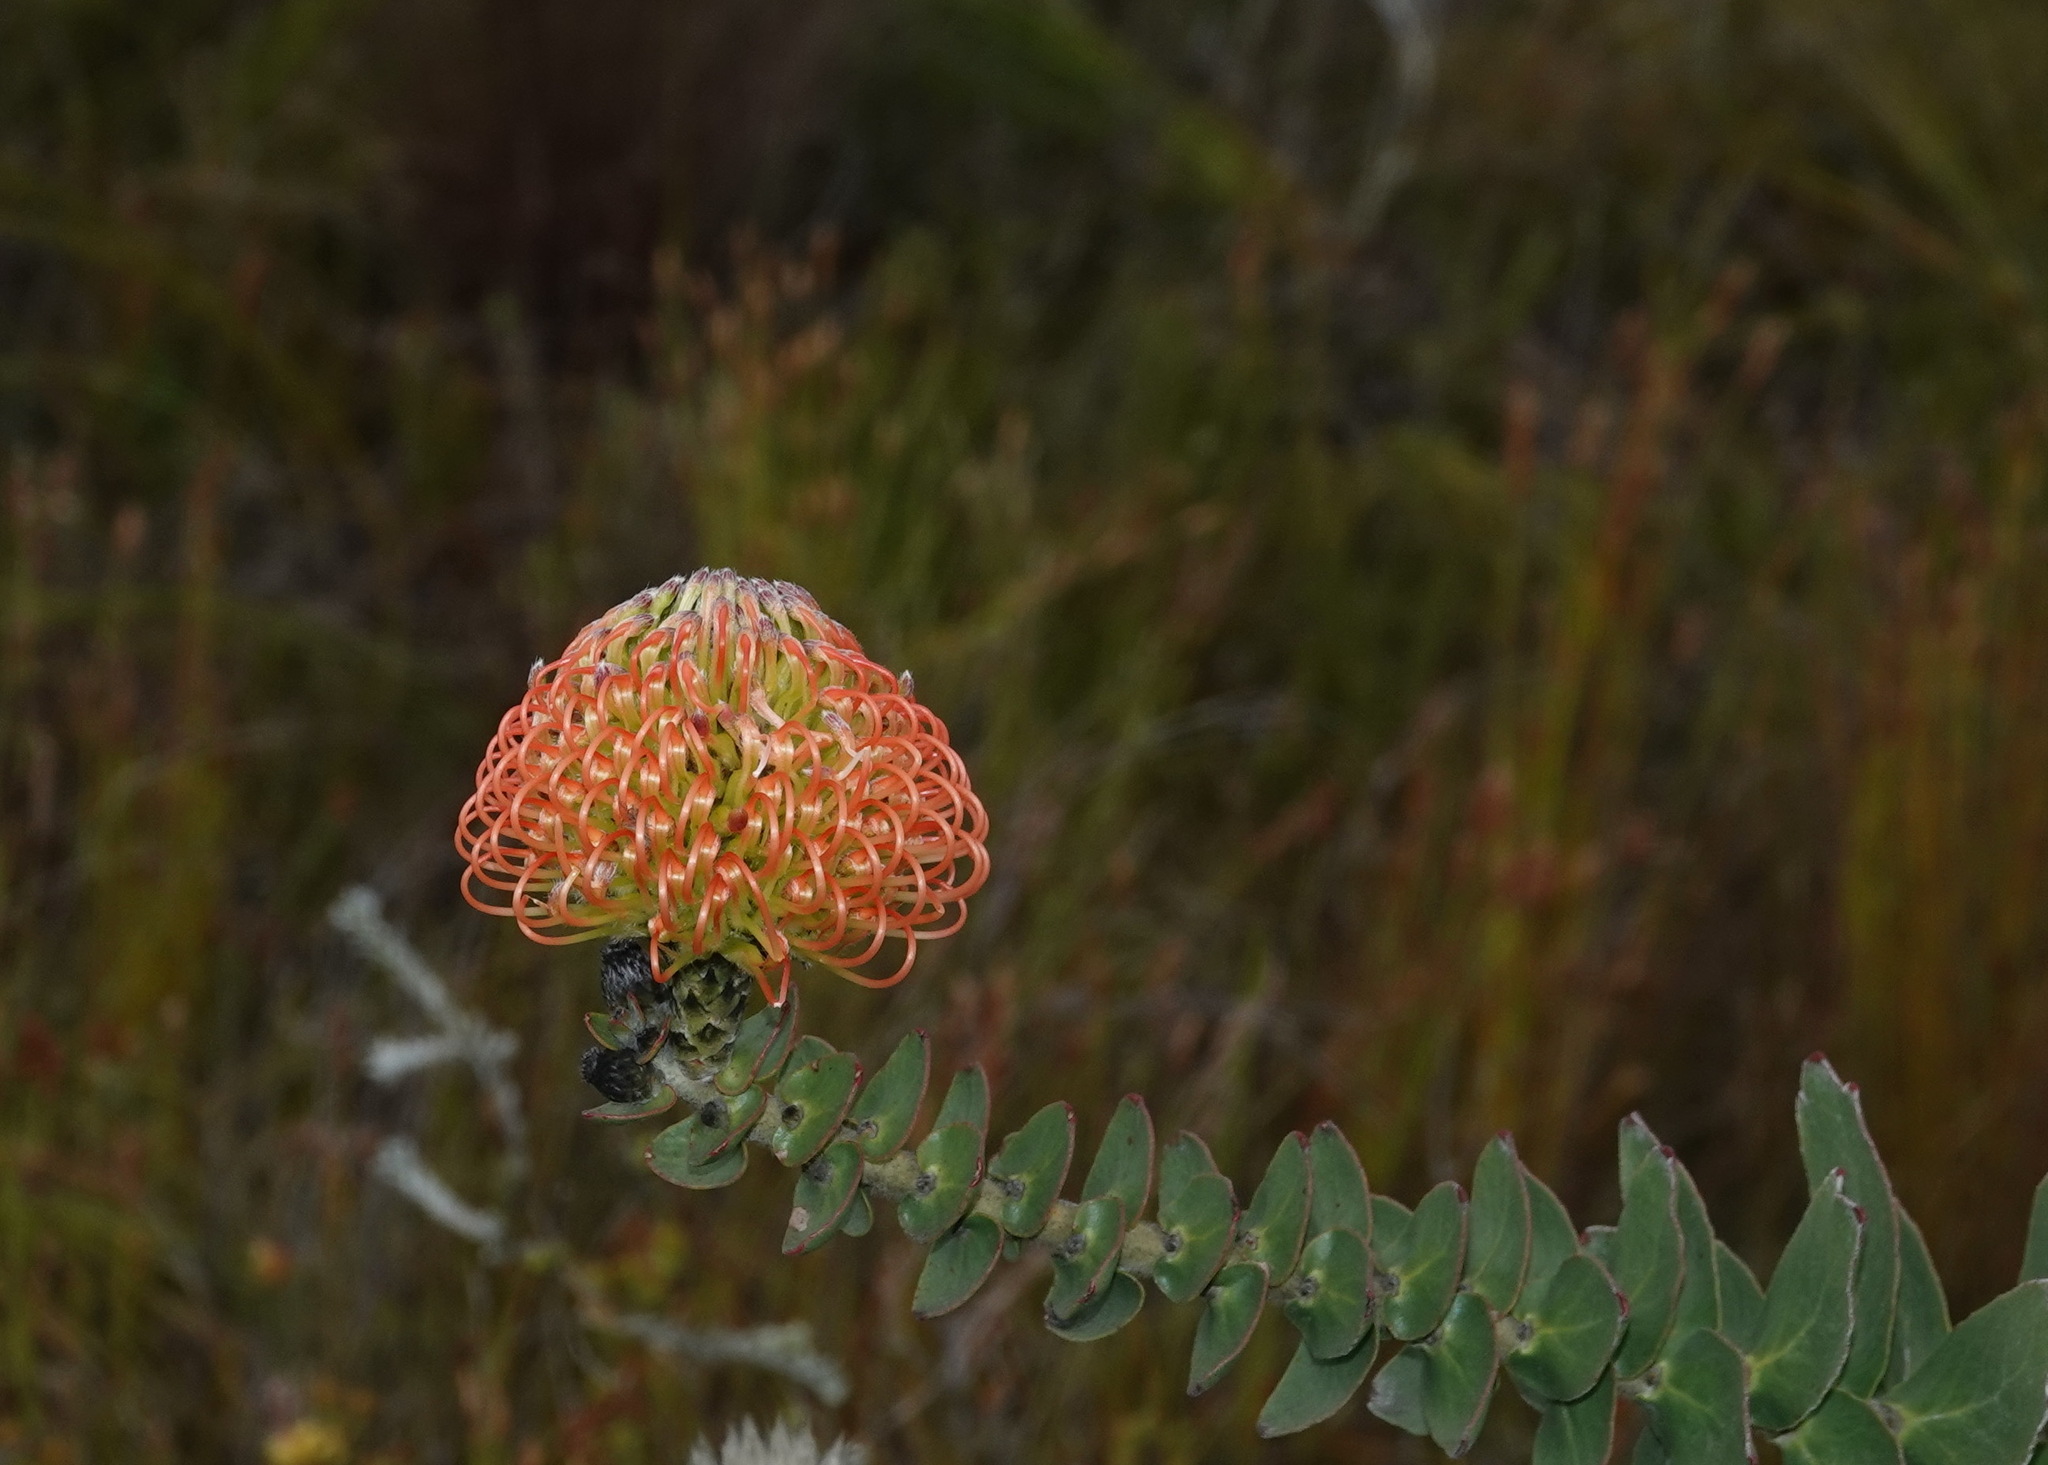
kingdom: Plantae
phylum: Tracheophyta
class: Magnoliopsida
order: Proteales
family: Proteaceae
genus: Leucospermum
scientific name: Leucospermum cordifolium
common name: Red pincushion-protea
